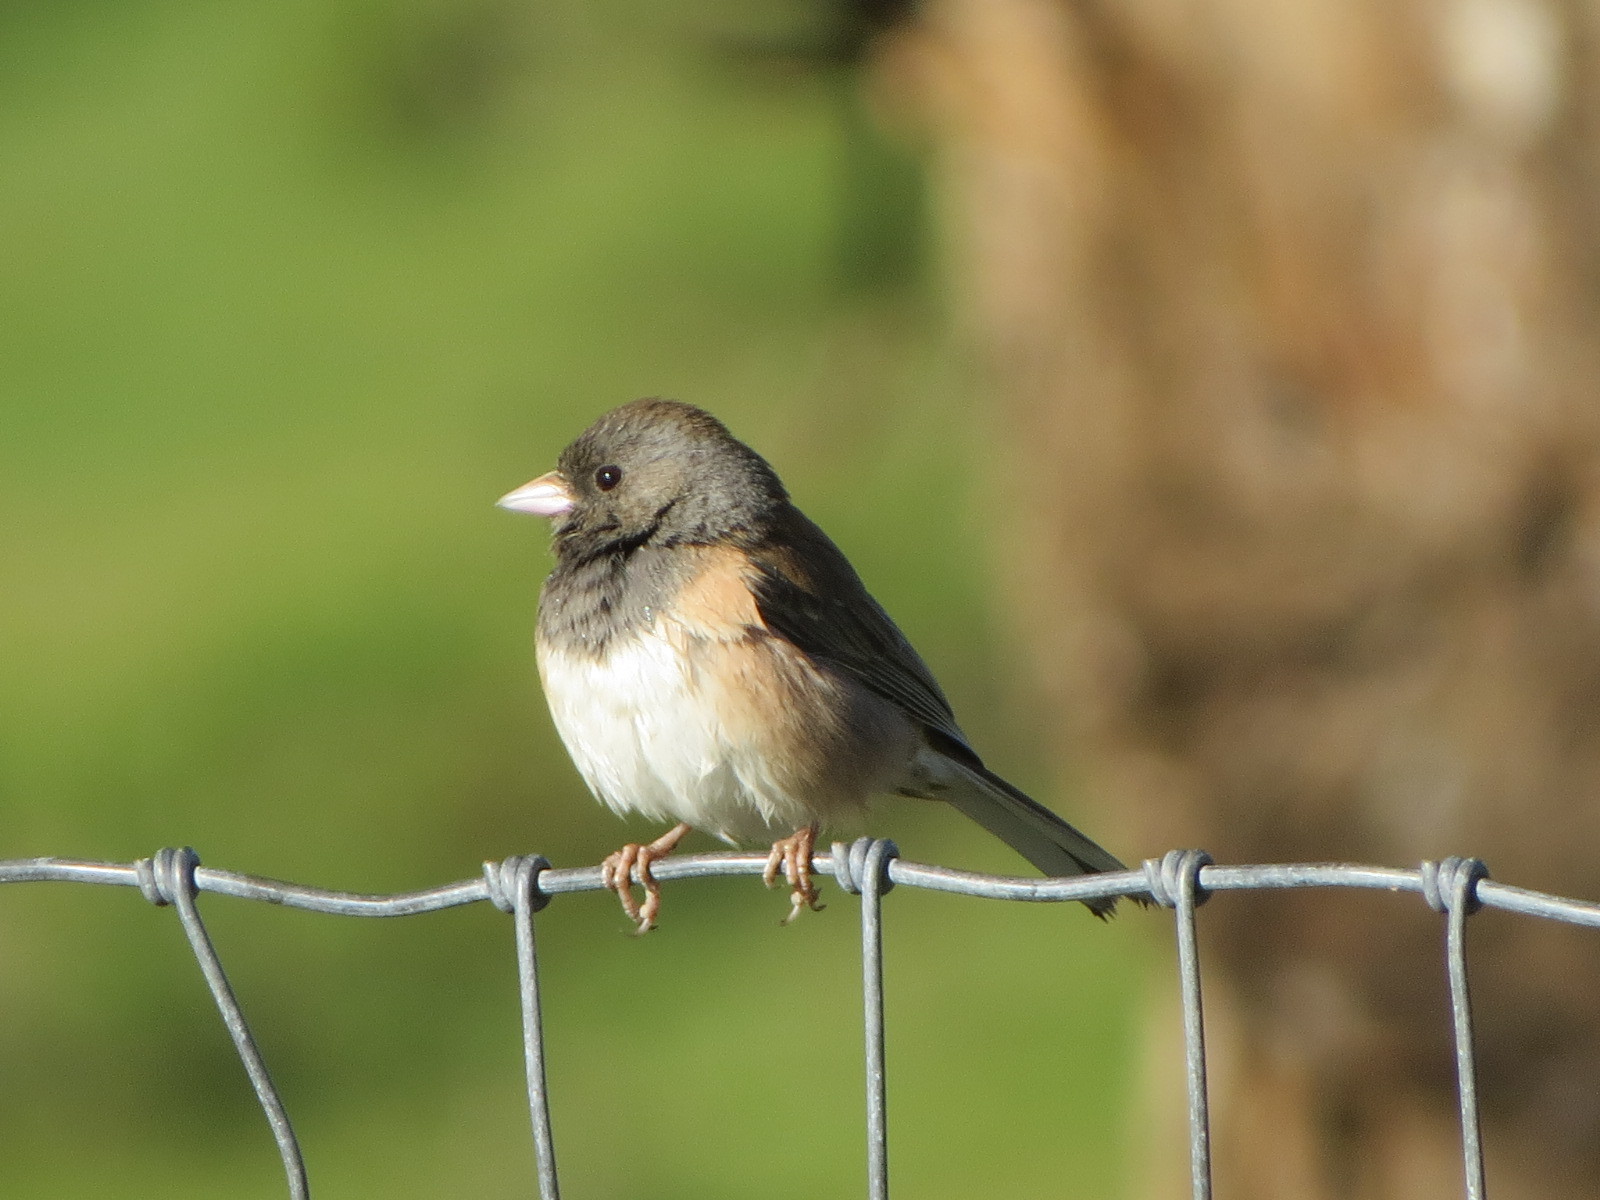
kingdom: Animalia
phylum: Chordata
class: Aves
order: Passeriformes
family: Passerellidae
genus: Junco
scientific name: Junco hyemalis
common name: Dark-eyed junco
